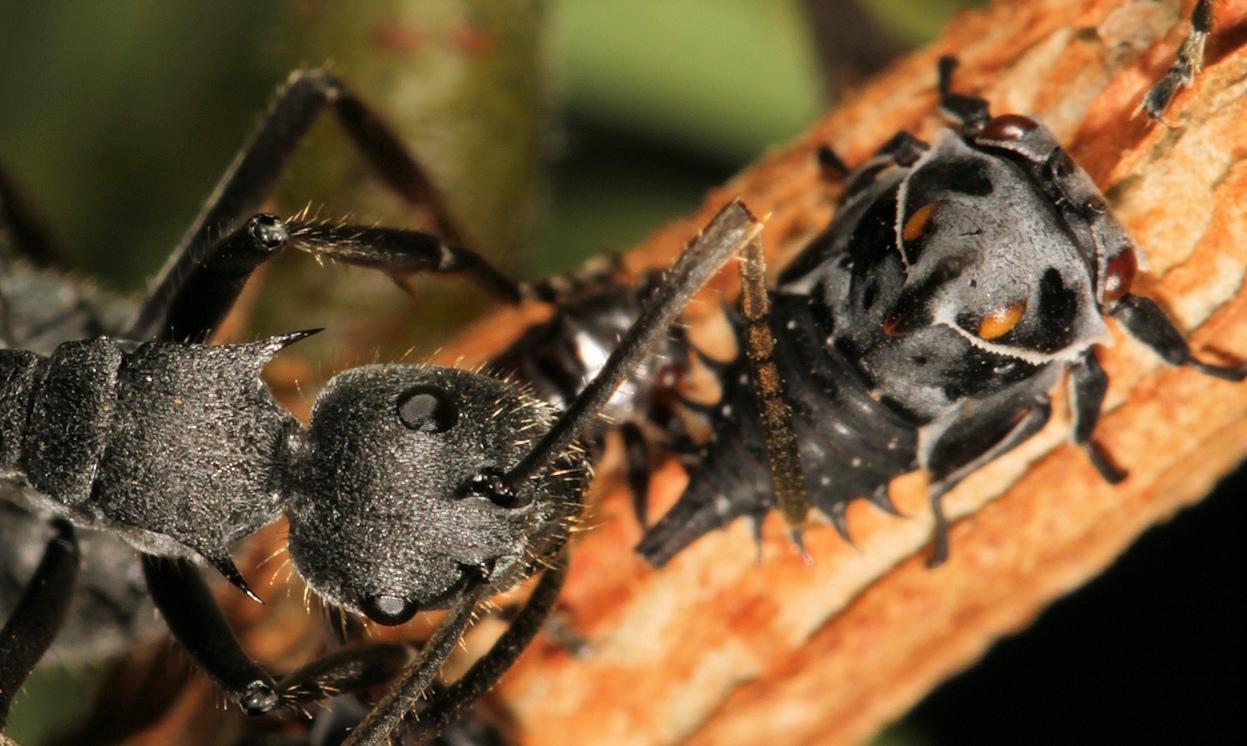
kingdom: Animalia
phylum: Arthropoda
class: Insecta
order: Hymenoptera
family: Formicidae
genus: Polyrhachis
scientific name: Polyrhachis schistacea
